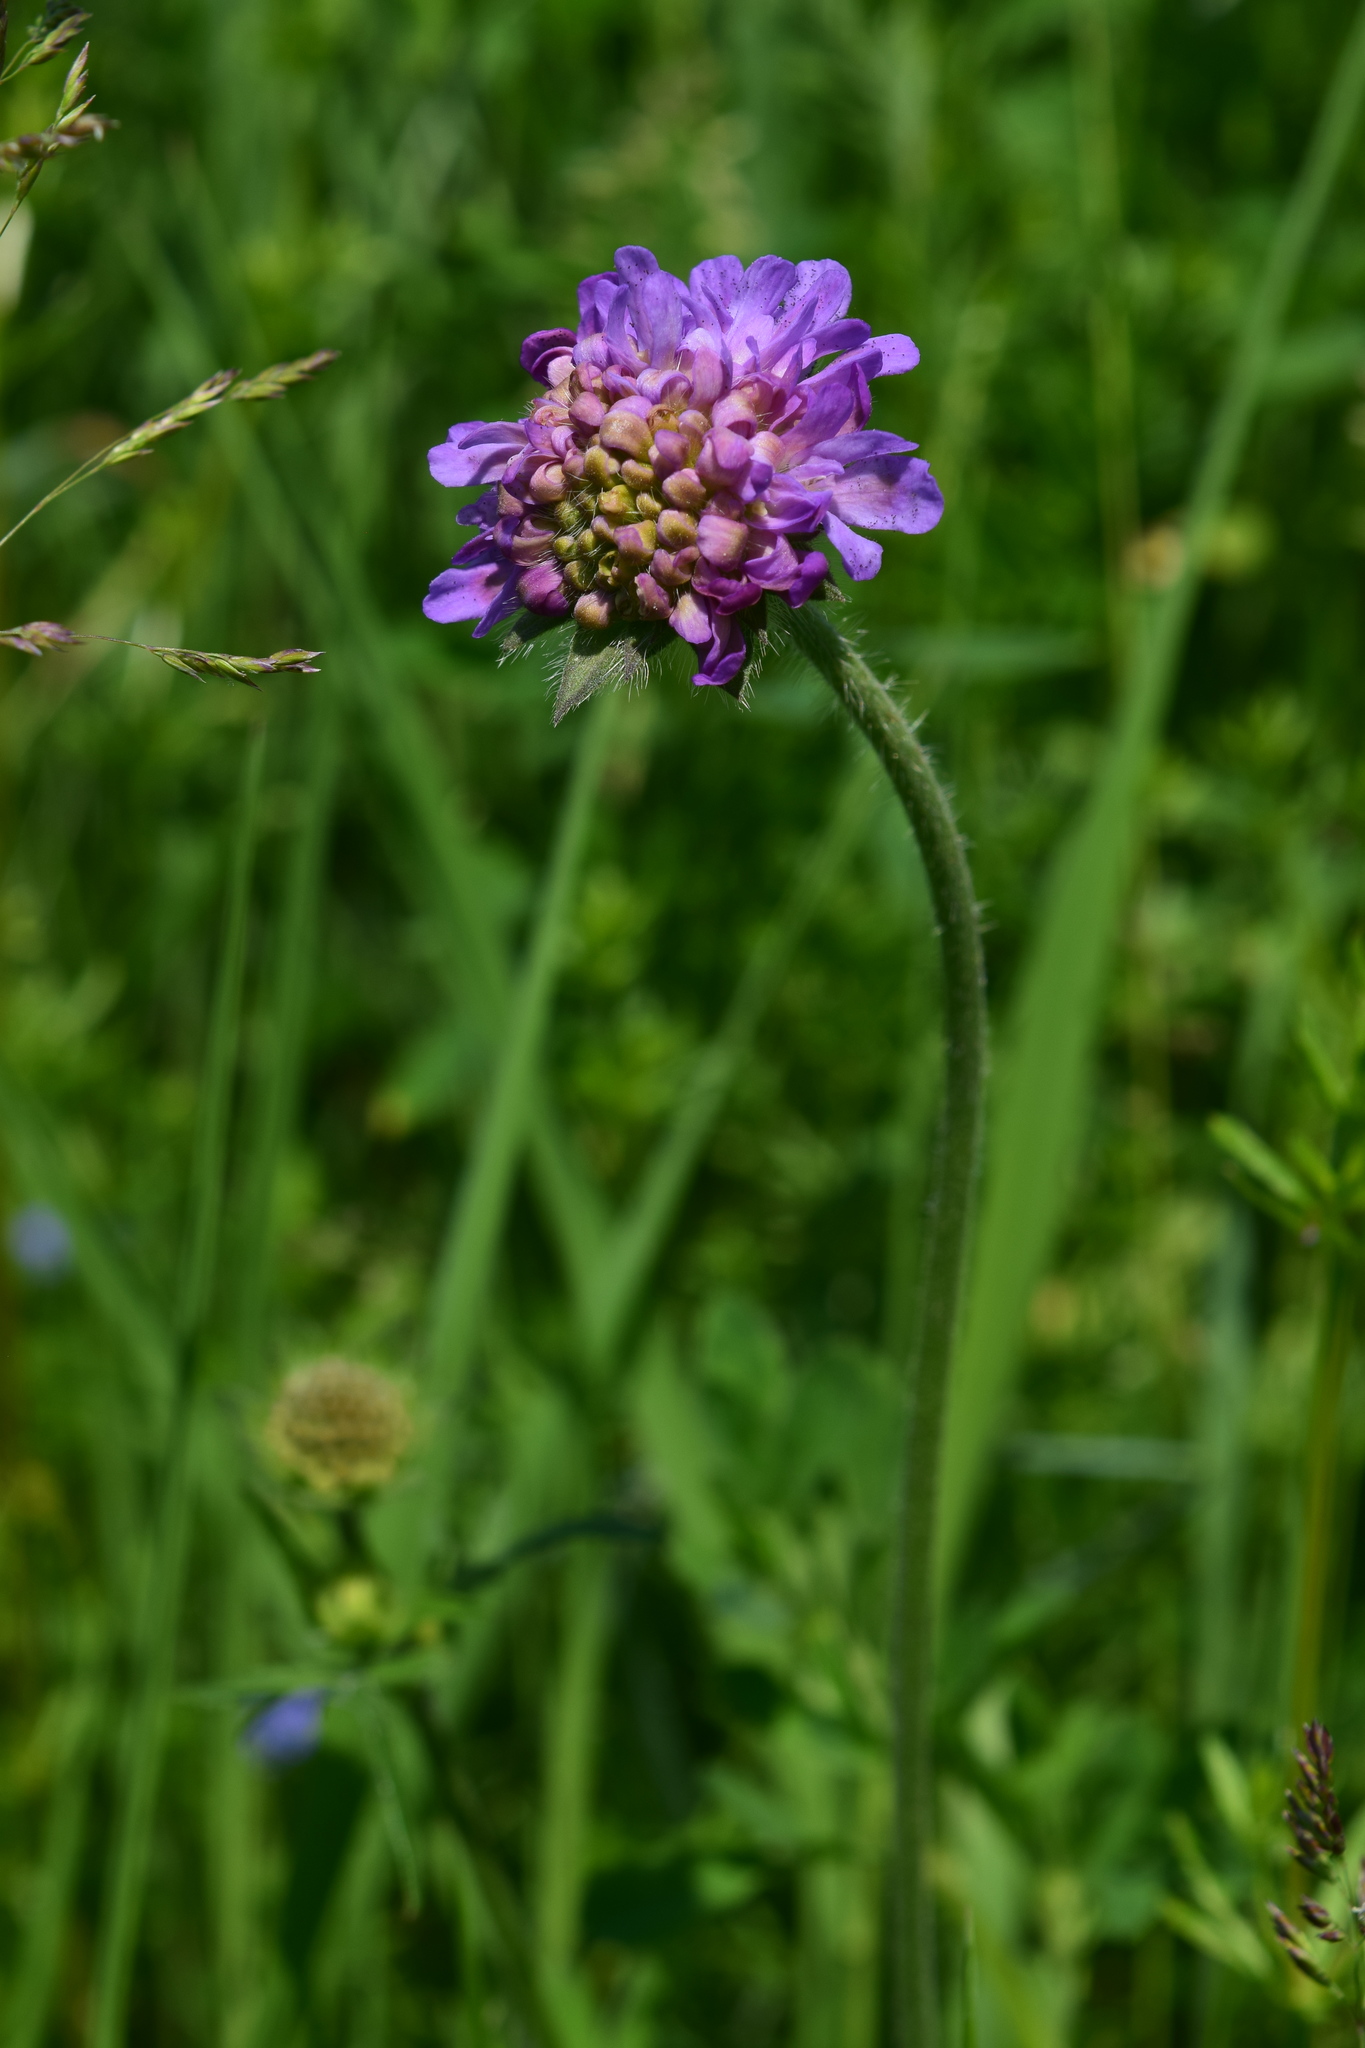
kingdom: Plantae
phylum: Tracheophyta
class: Magnoliopsida
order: Dipsacales
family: Caprifoliaceae
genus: Knautia
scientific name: Knautia arvensis
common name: Field scabiosa
